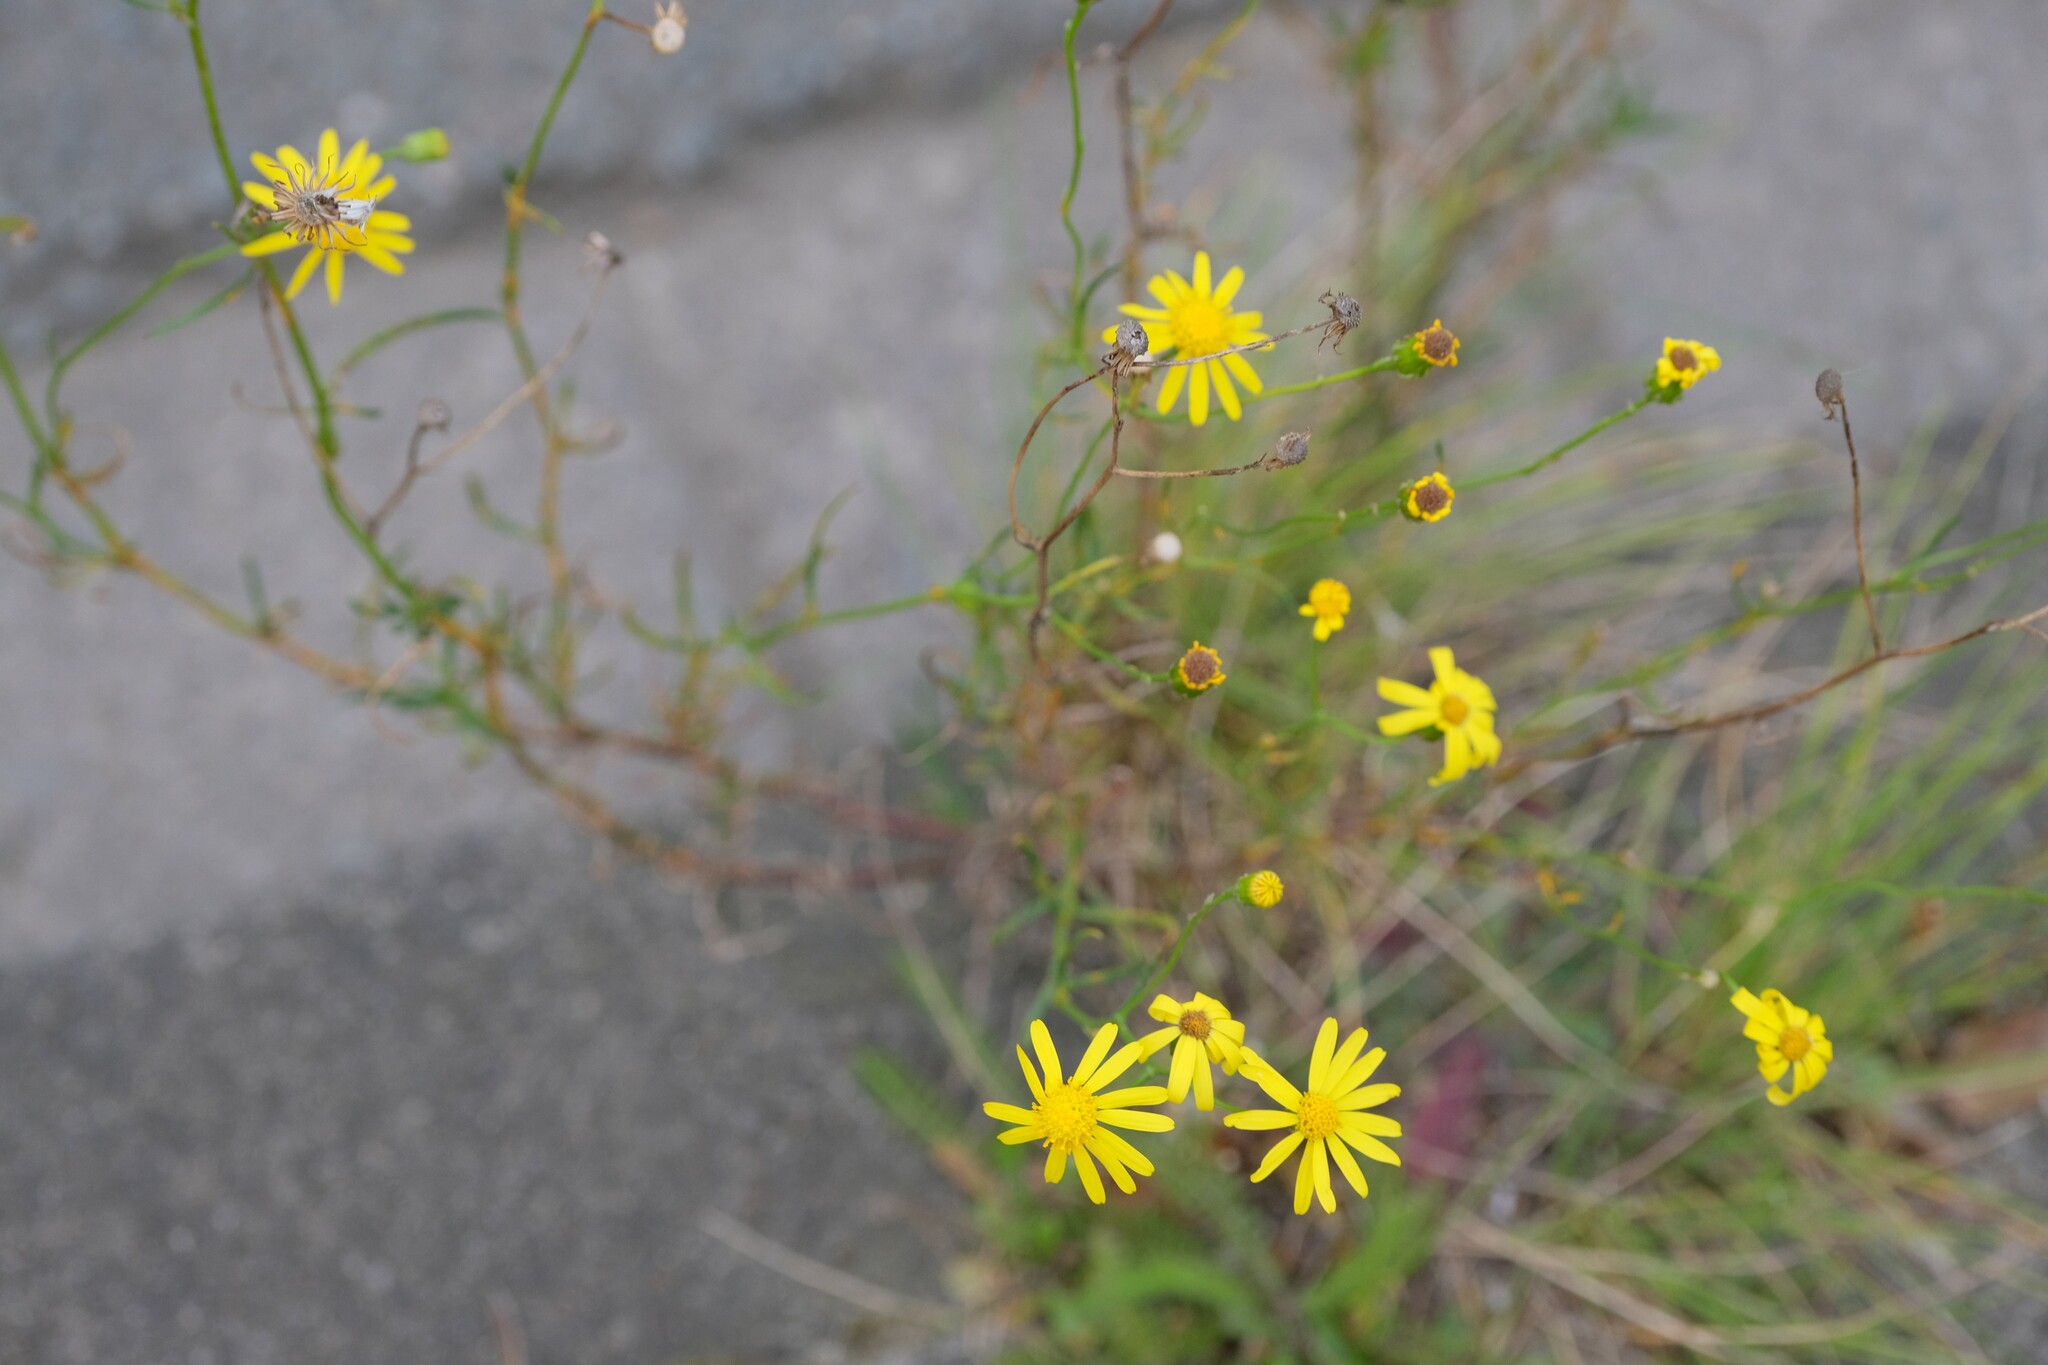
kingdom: Plantae
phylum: Tracheophyta
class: Magnoliopsida
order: Asterales
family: Asteraceae
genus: Senecio
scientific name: Senecio inaequidens
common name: Narrow-leaved ragwort
